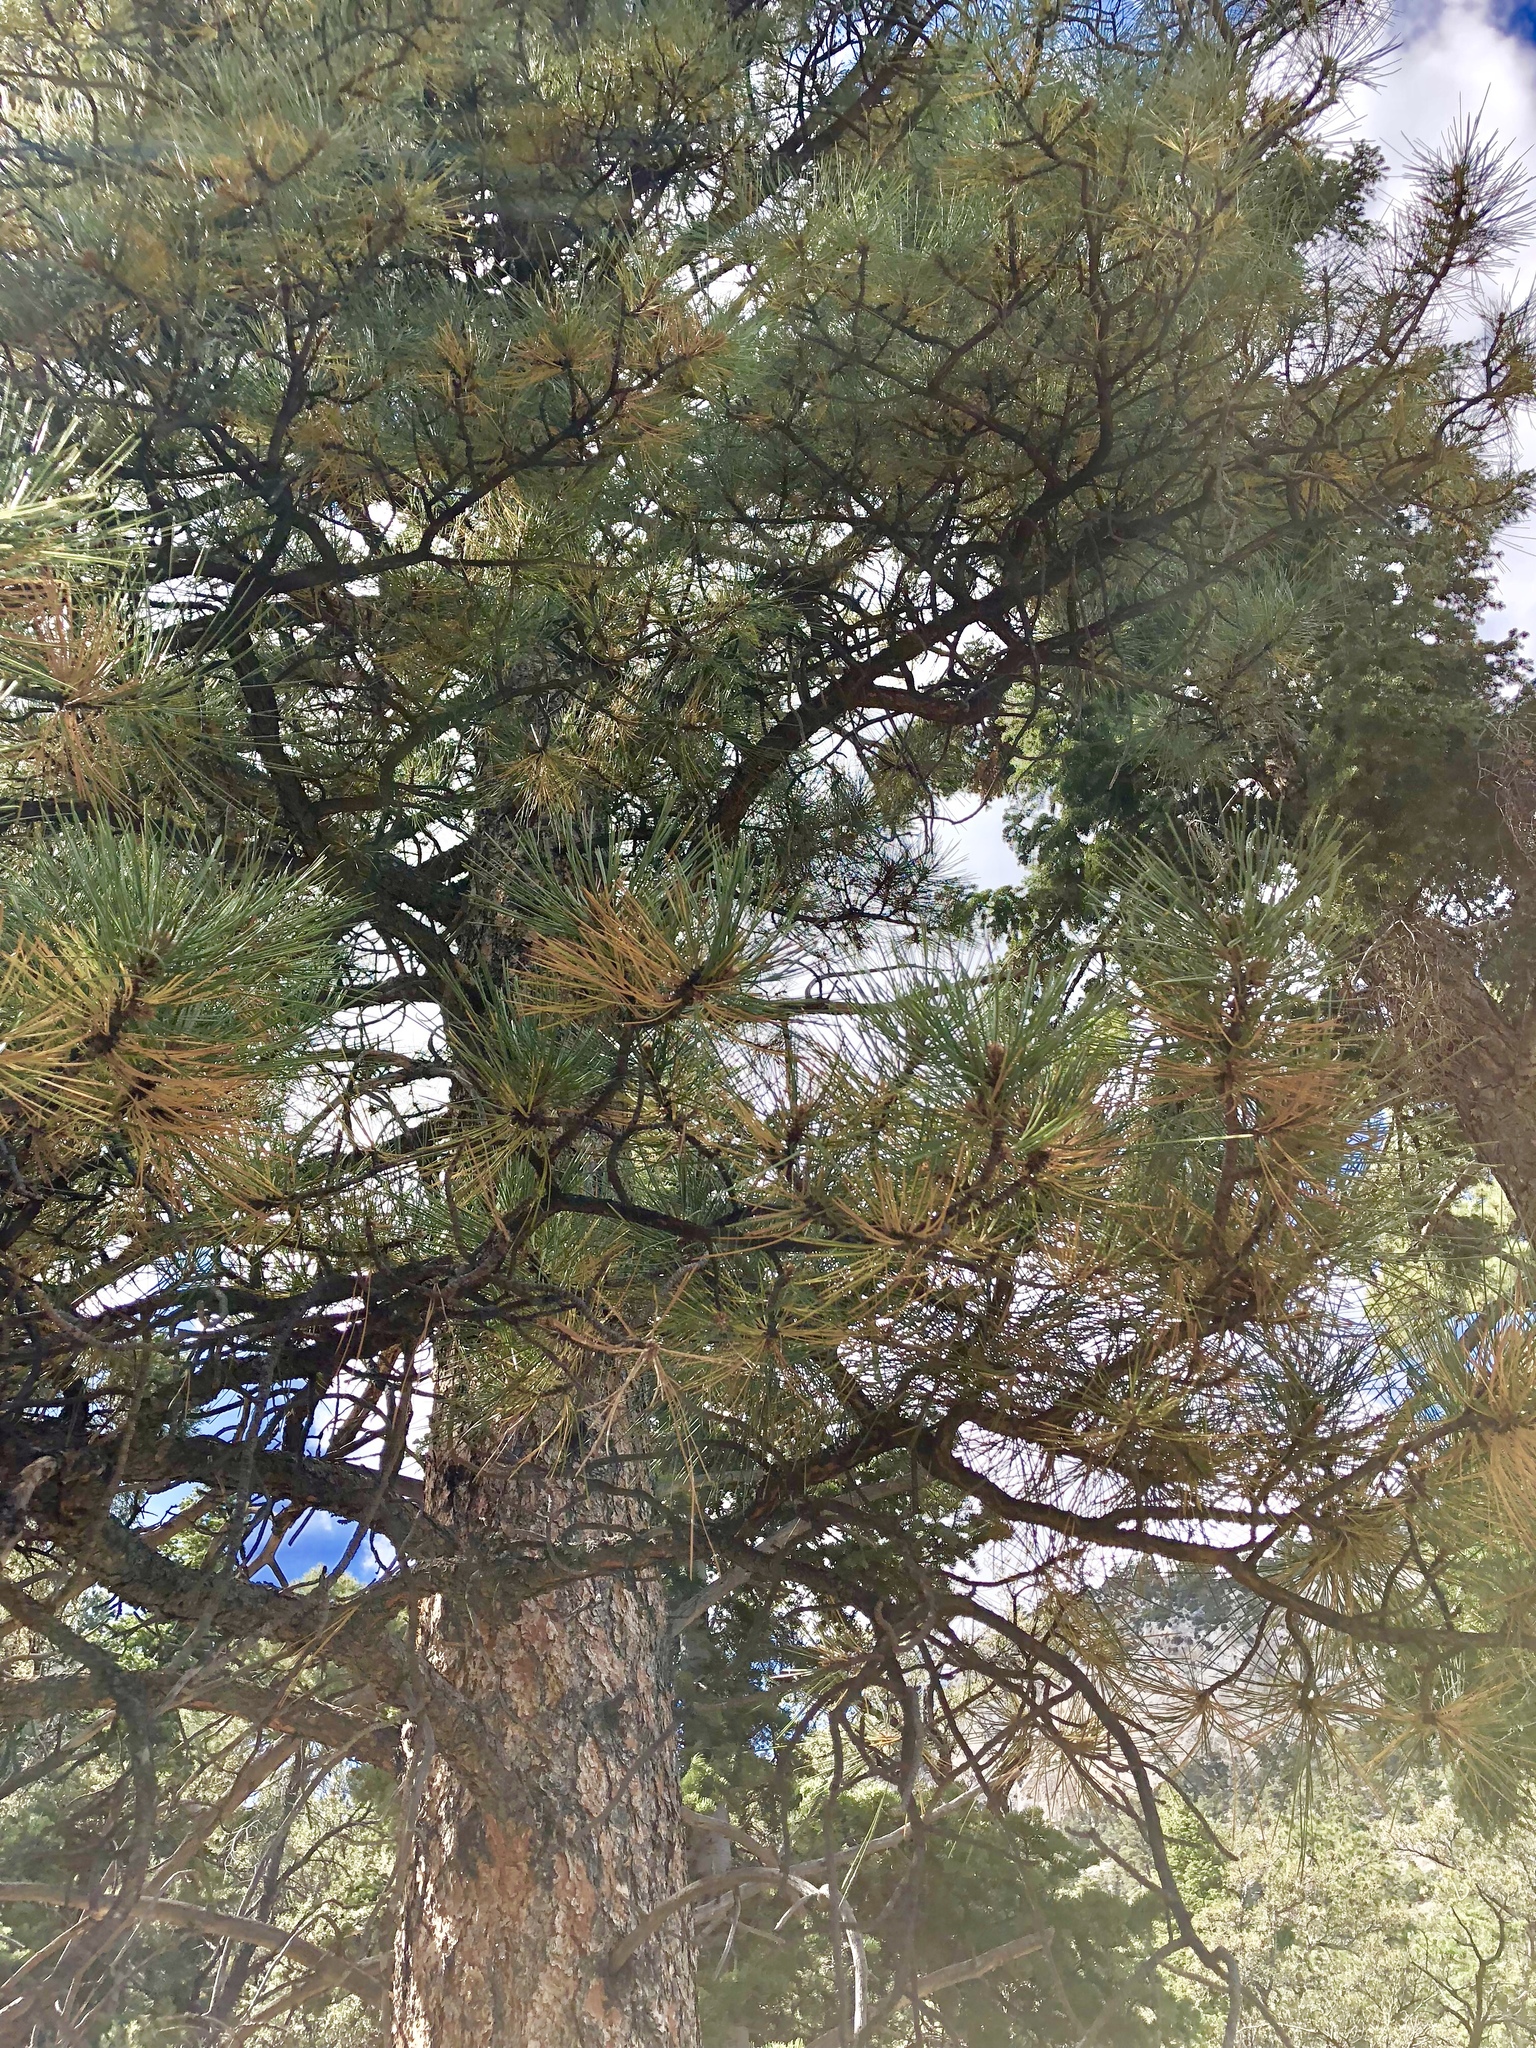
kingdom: Plantae
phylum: Tracheophyta
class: Pinopsida
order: Pinales
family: Pinaceae
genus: Pinus
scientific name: Pinus ponderosa
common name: Western yellow-pine
